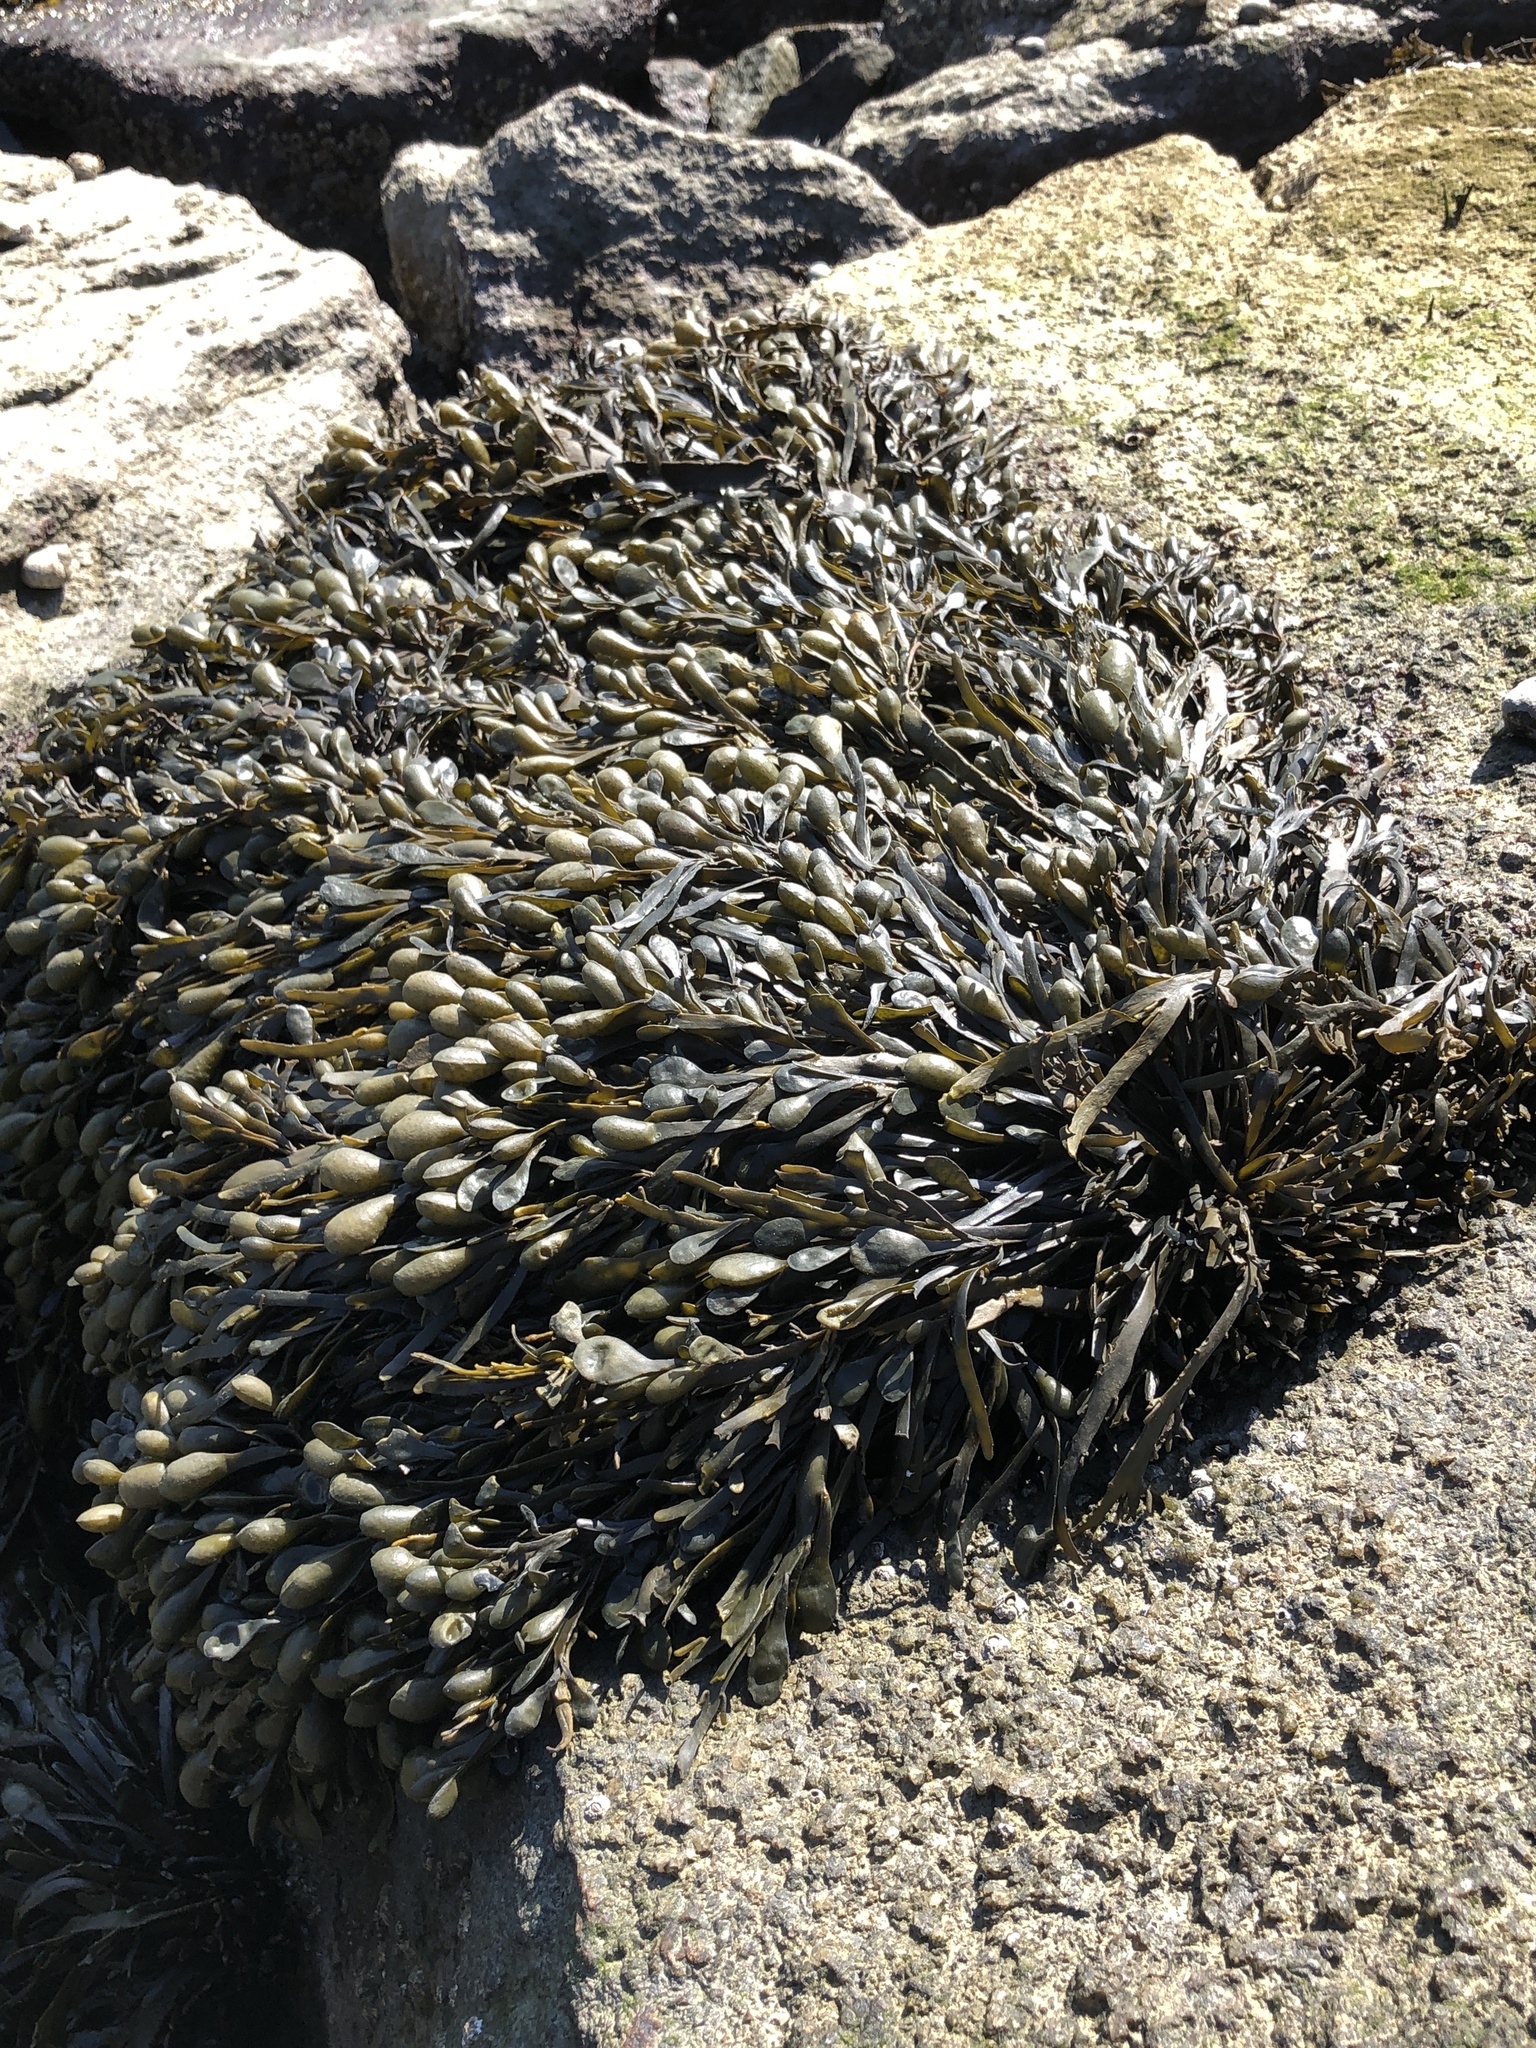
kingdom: Chromista
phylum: Ochrophyta
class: Phaeophyceae
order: Fucales
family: Fucaceae
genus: Ascophyllum
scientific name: Ascophyllum nodosum
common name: Knotted wrack
